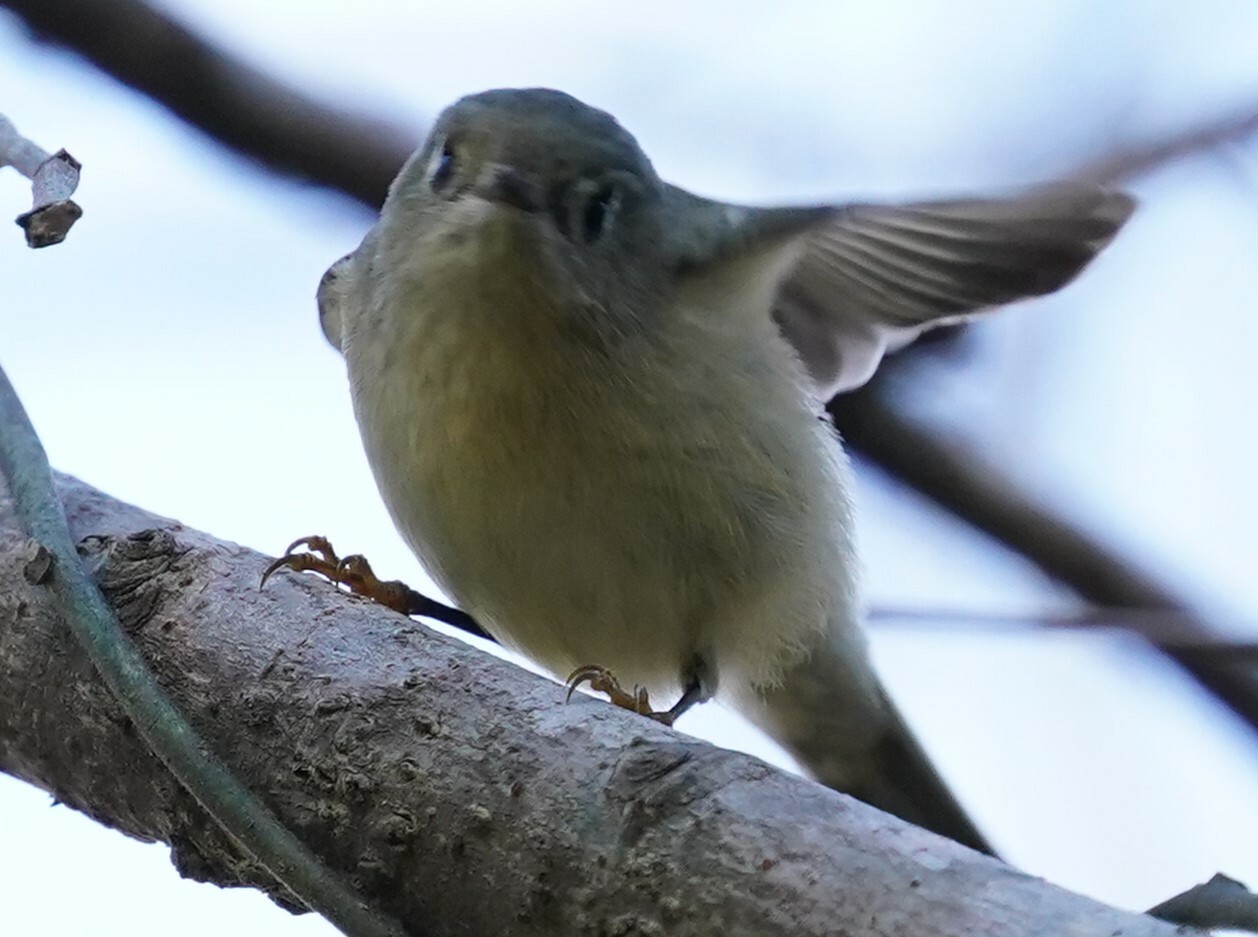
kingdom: Animalia
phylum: Chordata
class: Aves
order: Passeriformes
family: Regulidae
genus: Regulus
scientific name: Regulus calendula
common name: Ruby-crowned kinglet
